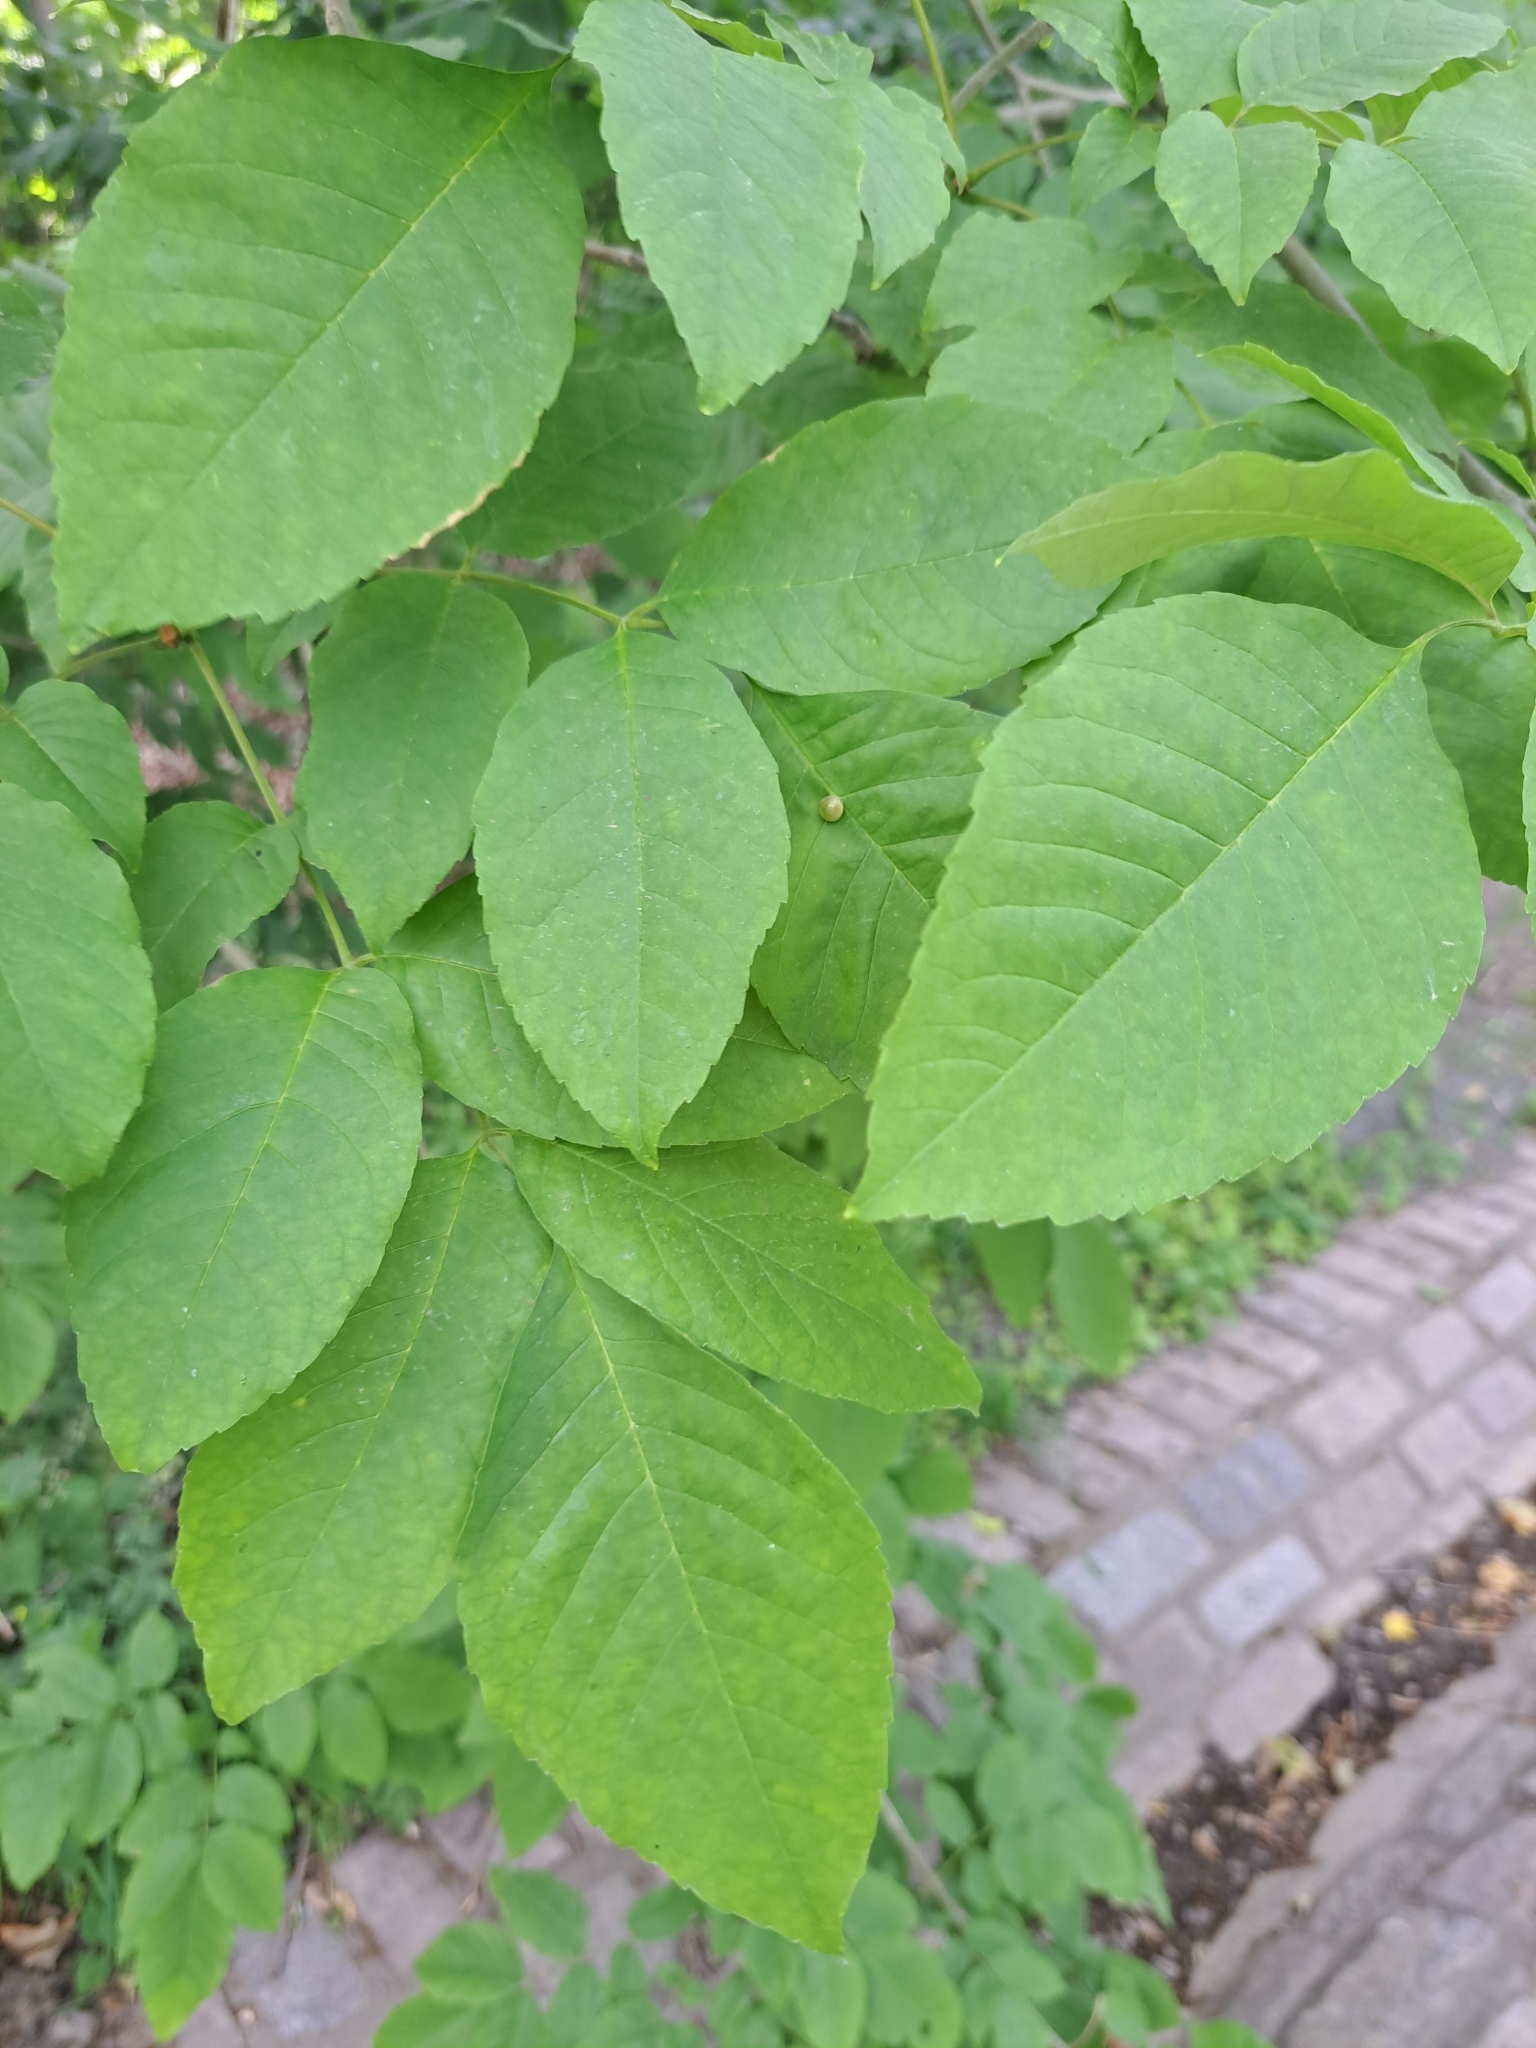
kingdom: Animalia
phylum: Arthropoda
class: Insecta
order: Diptera
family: Cecidomyiidae
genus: Dasineura
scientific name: Dasineura pellex
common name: Ash bullet gall midge
